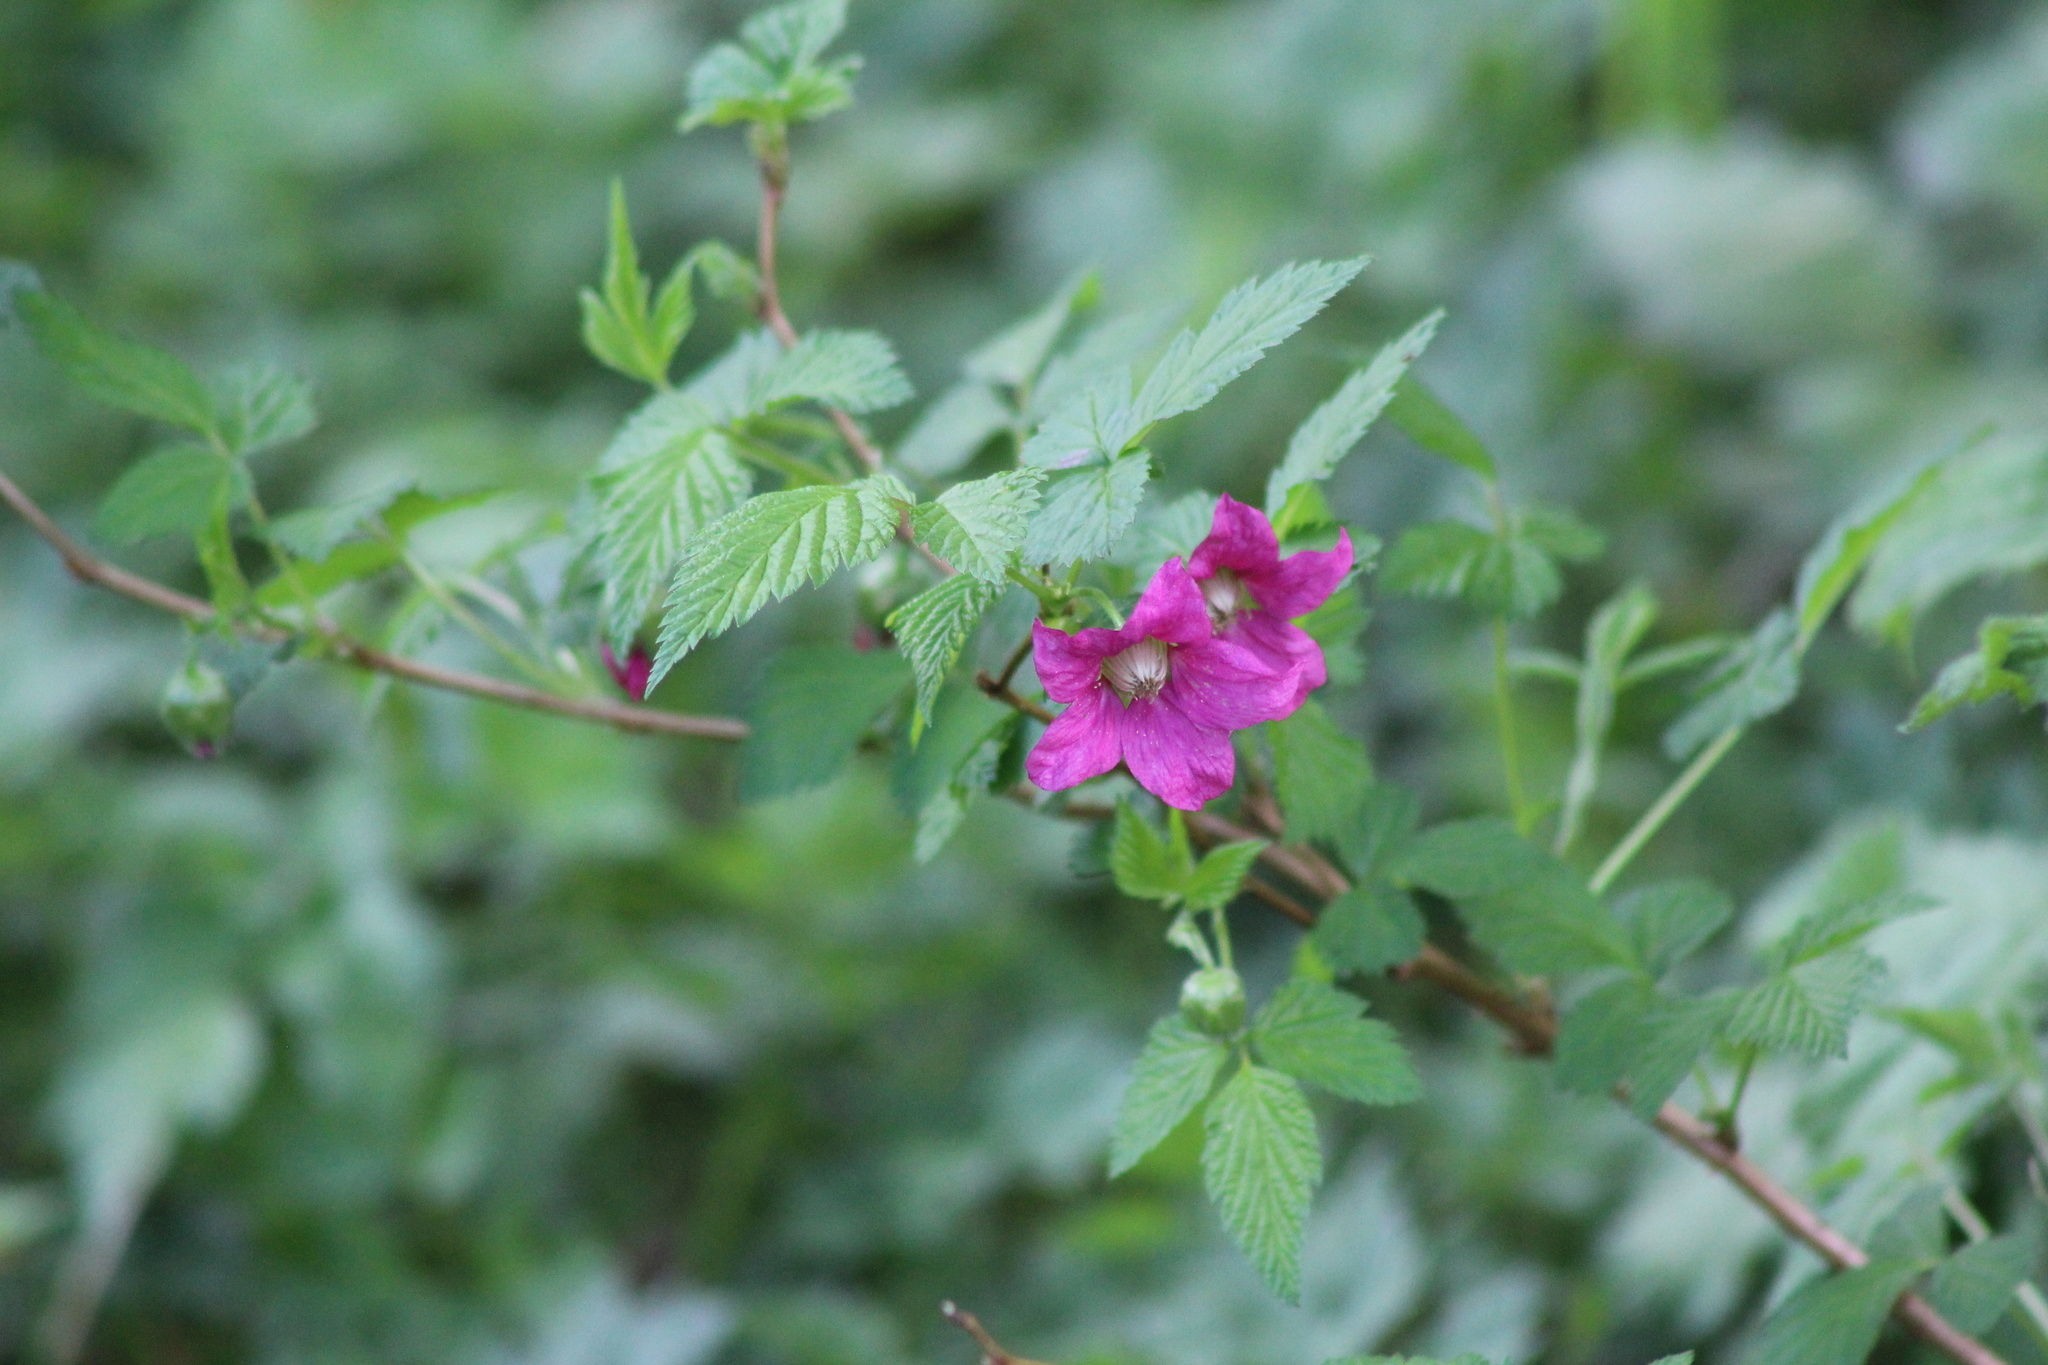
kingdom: Plantae
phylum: Tracheophyta
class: Magnoliopsida
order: Rosales
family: Rosaceae
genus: Rubus
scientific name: Rubus spectabilis
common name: Salmonberry
